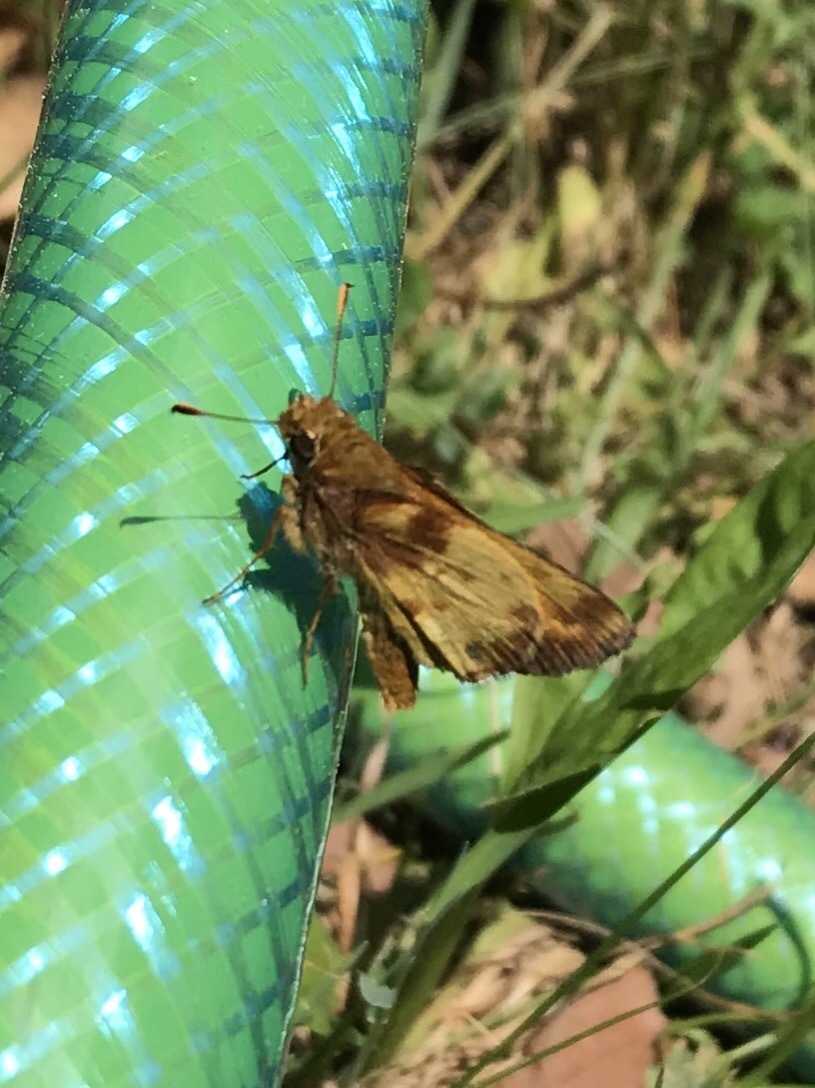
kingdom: Animalia
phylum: Arthropoda
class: Insecta
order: Lepidoptera
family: Hesperiidae
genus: Lon
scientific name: Lon zabulon
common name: Zabulon skipper
